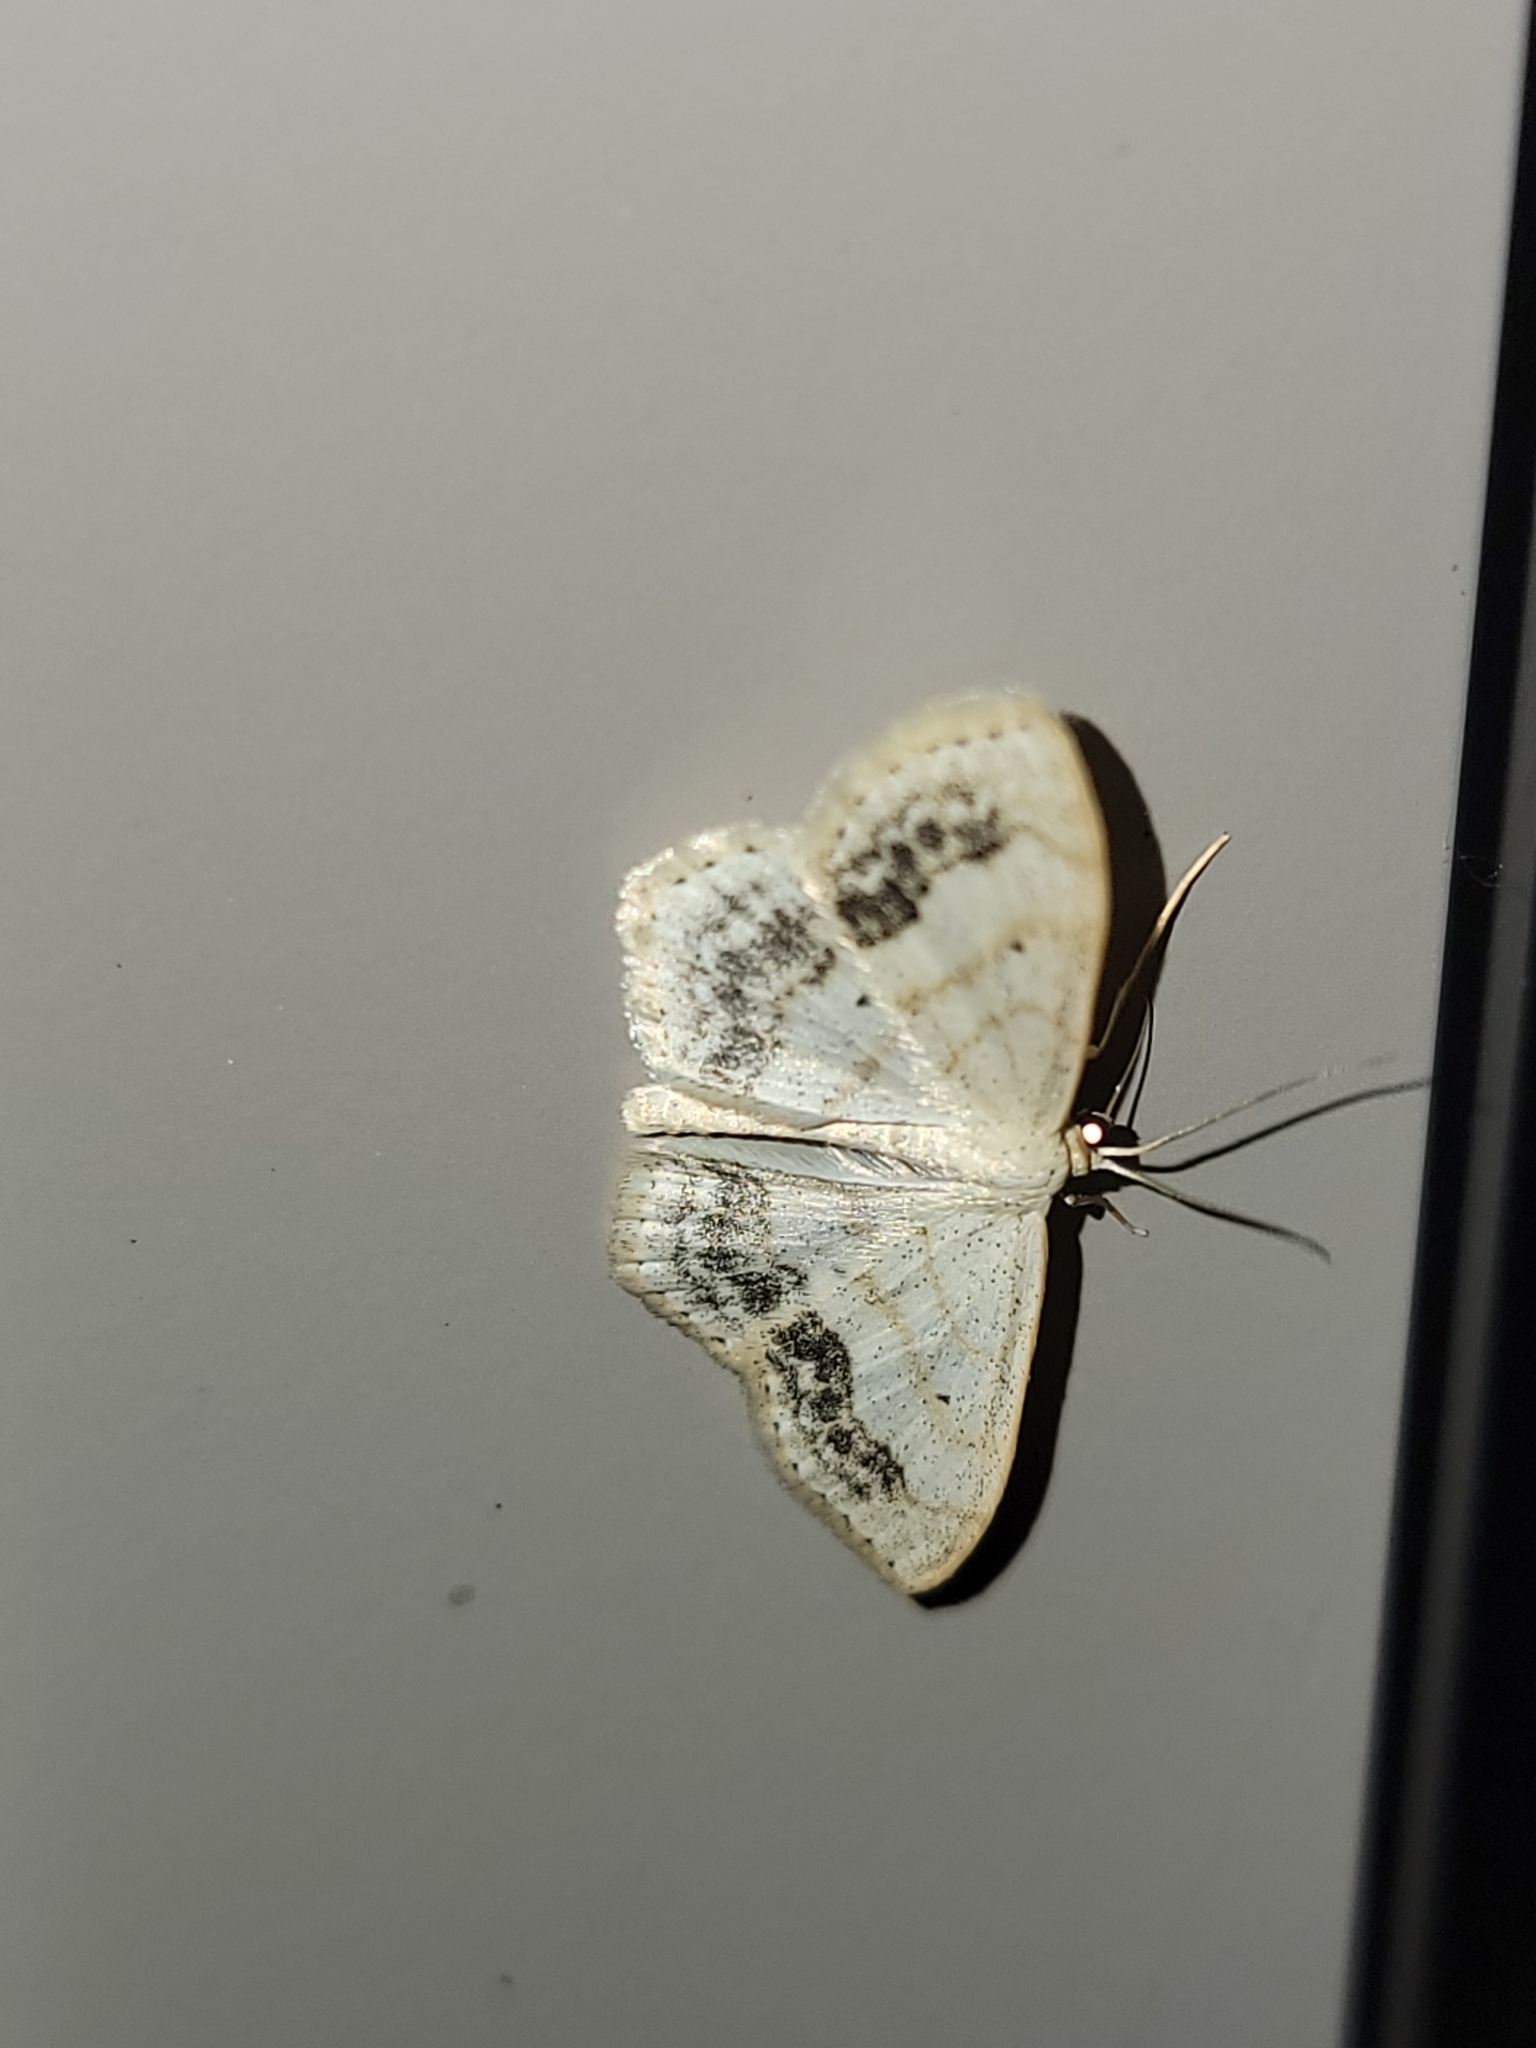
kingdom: Animalia
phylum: Arthropoda
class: Insecta
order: Lepidoptera
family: Geometridae
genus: Scopula
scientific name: Scopula limboundata
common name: Large lace border
